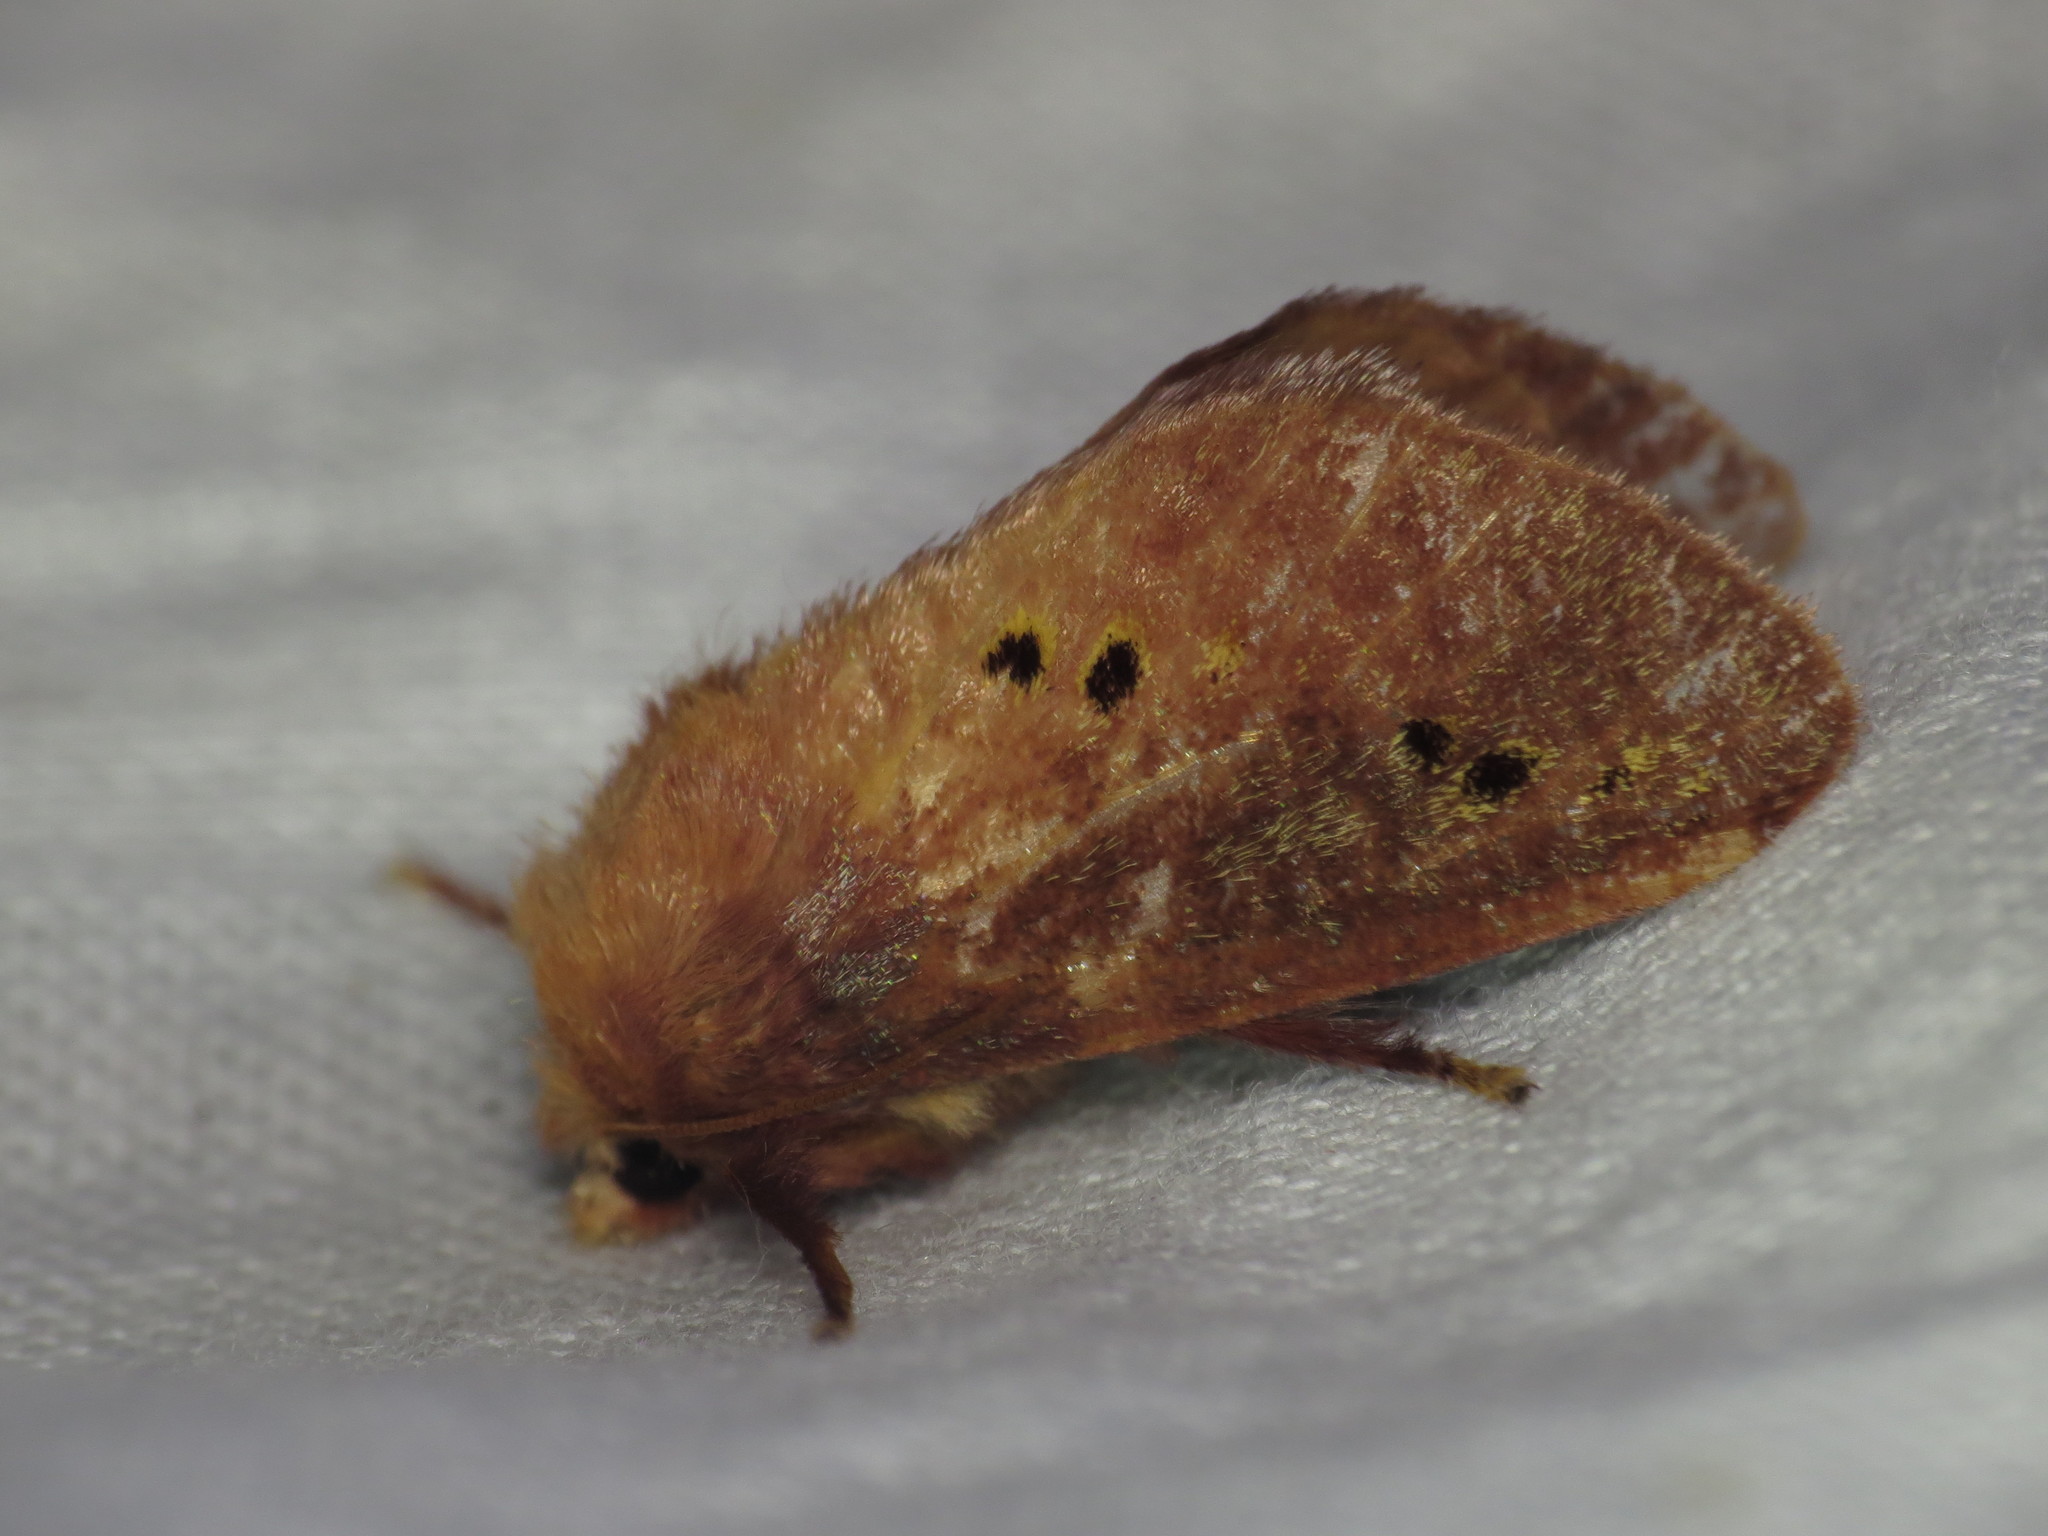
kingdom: Animalia
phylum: Arthropoda
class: Insecta
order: Lepidoptera
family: Limacodidae
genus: Doratifera
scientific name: Doratifera quadriguttata
